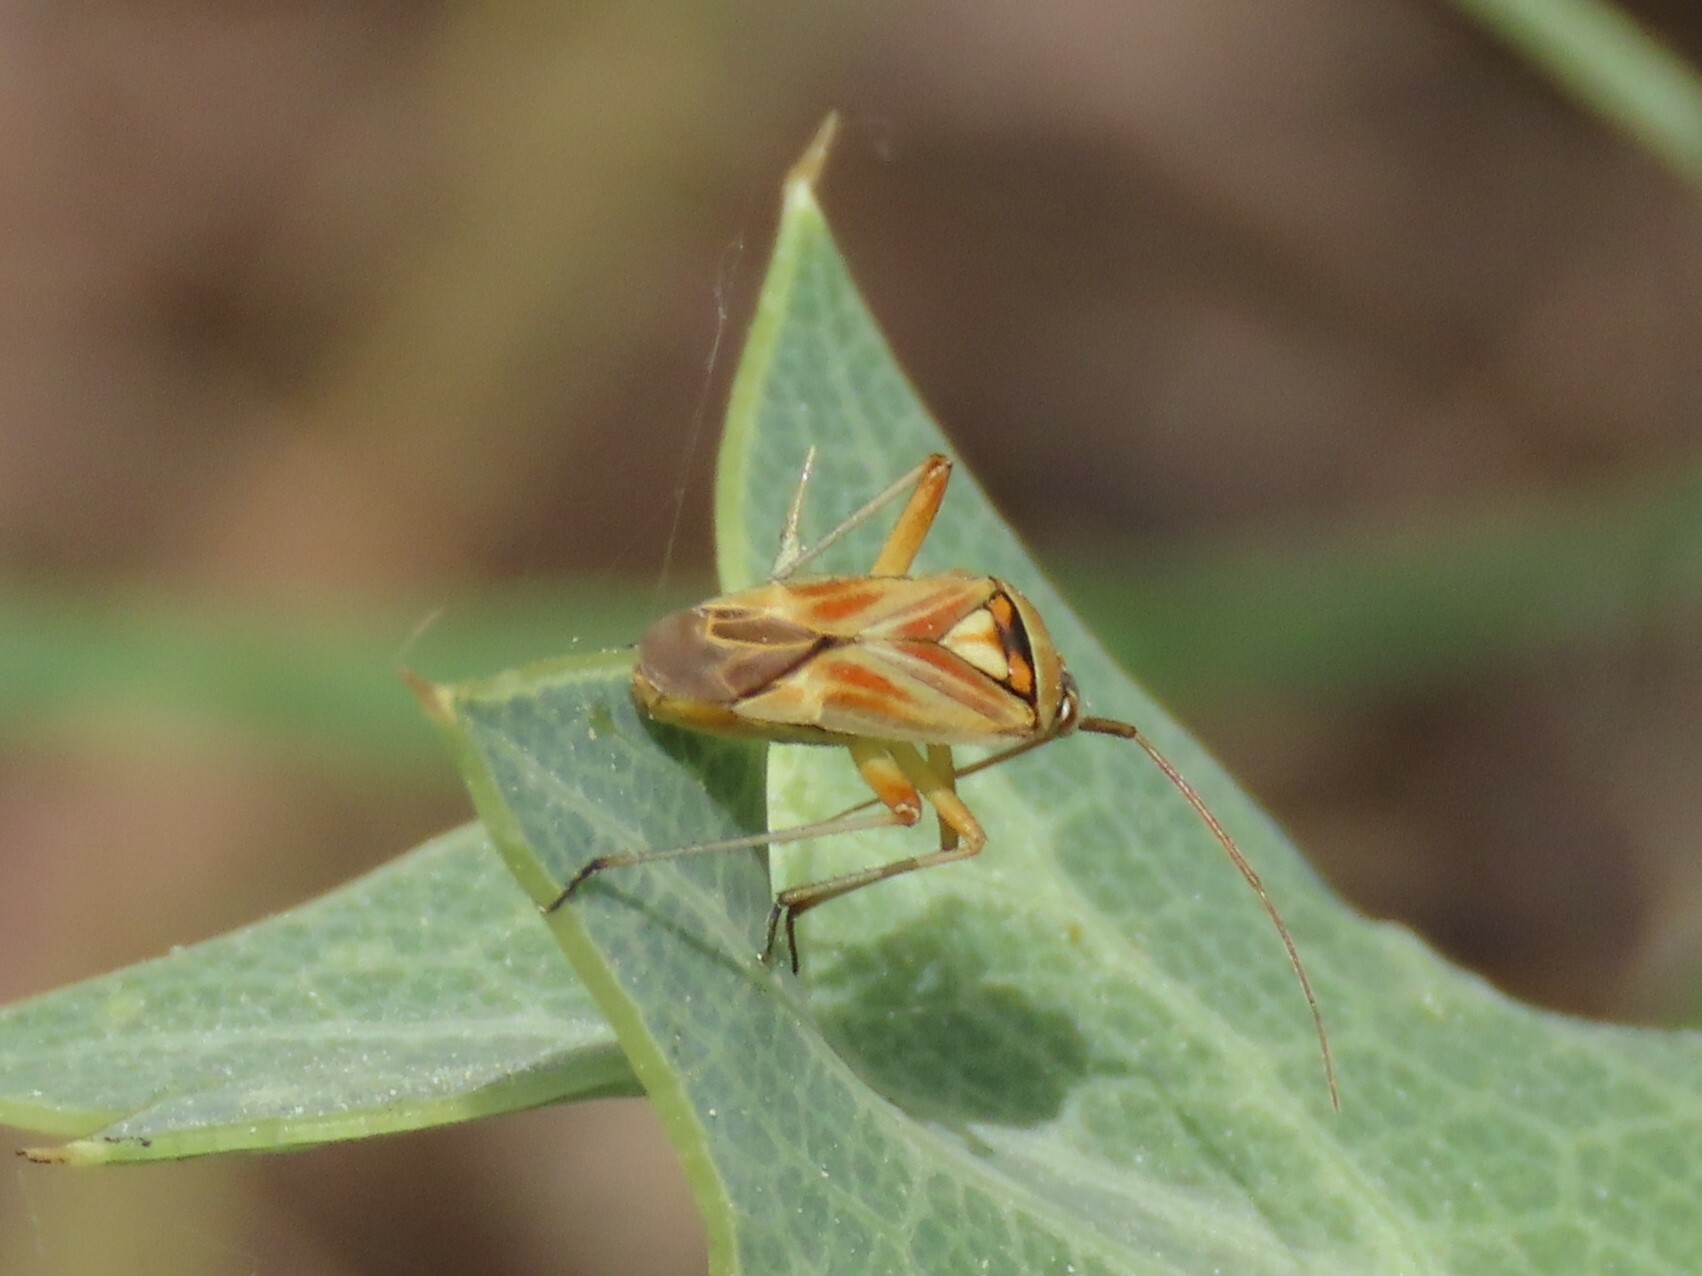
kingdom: Animalia
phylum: Arthropoda
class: Insecta
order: Hemiptera
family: Miridae
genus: Calocoris
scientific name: Calocoris roseomaculatus
